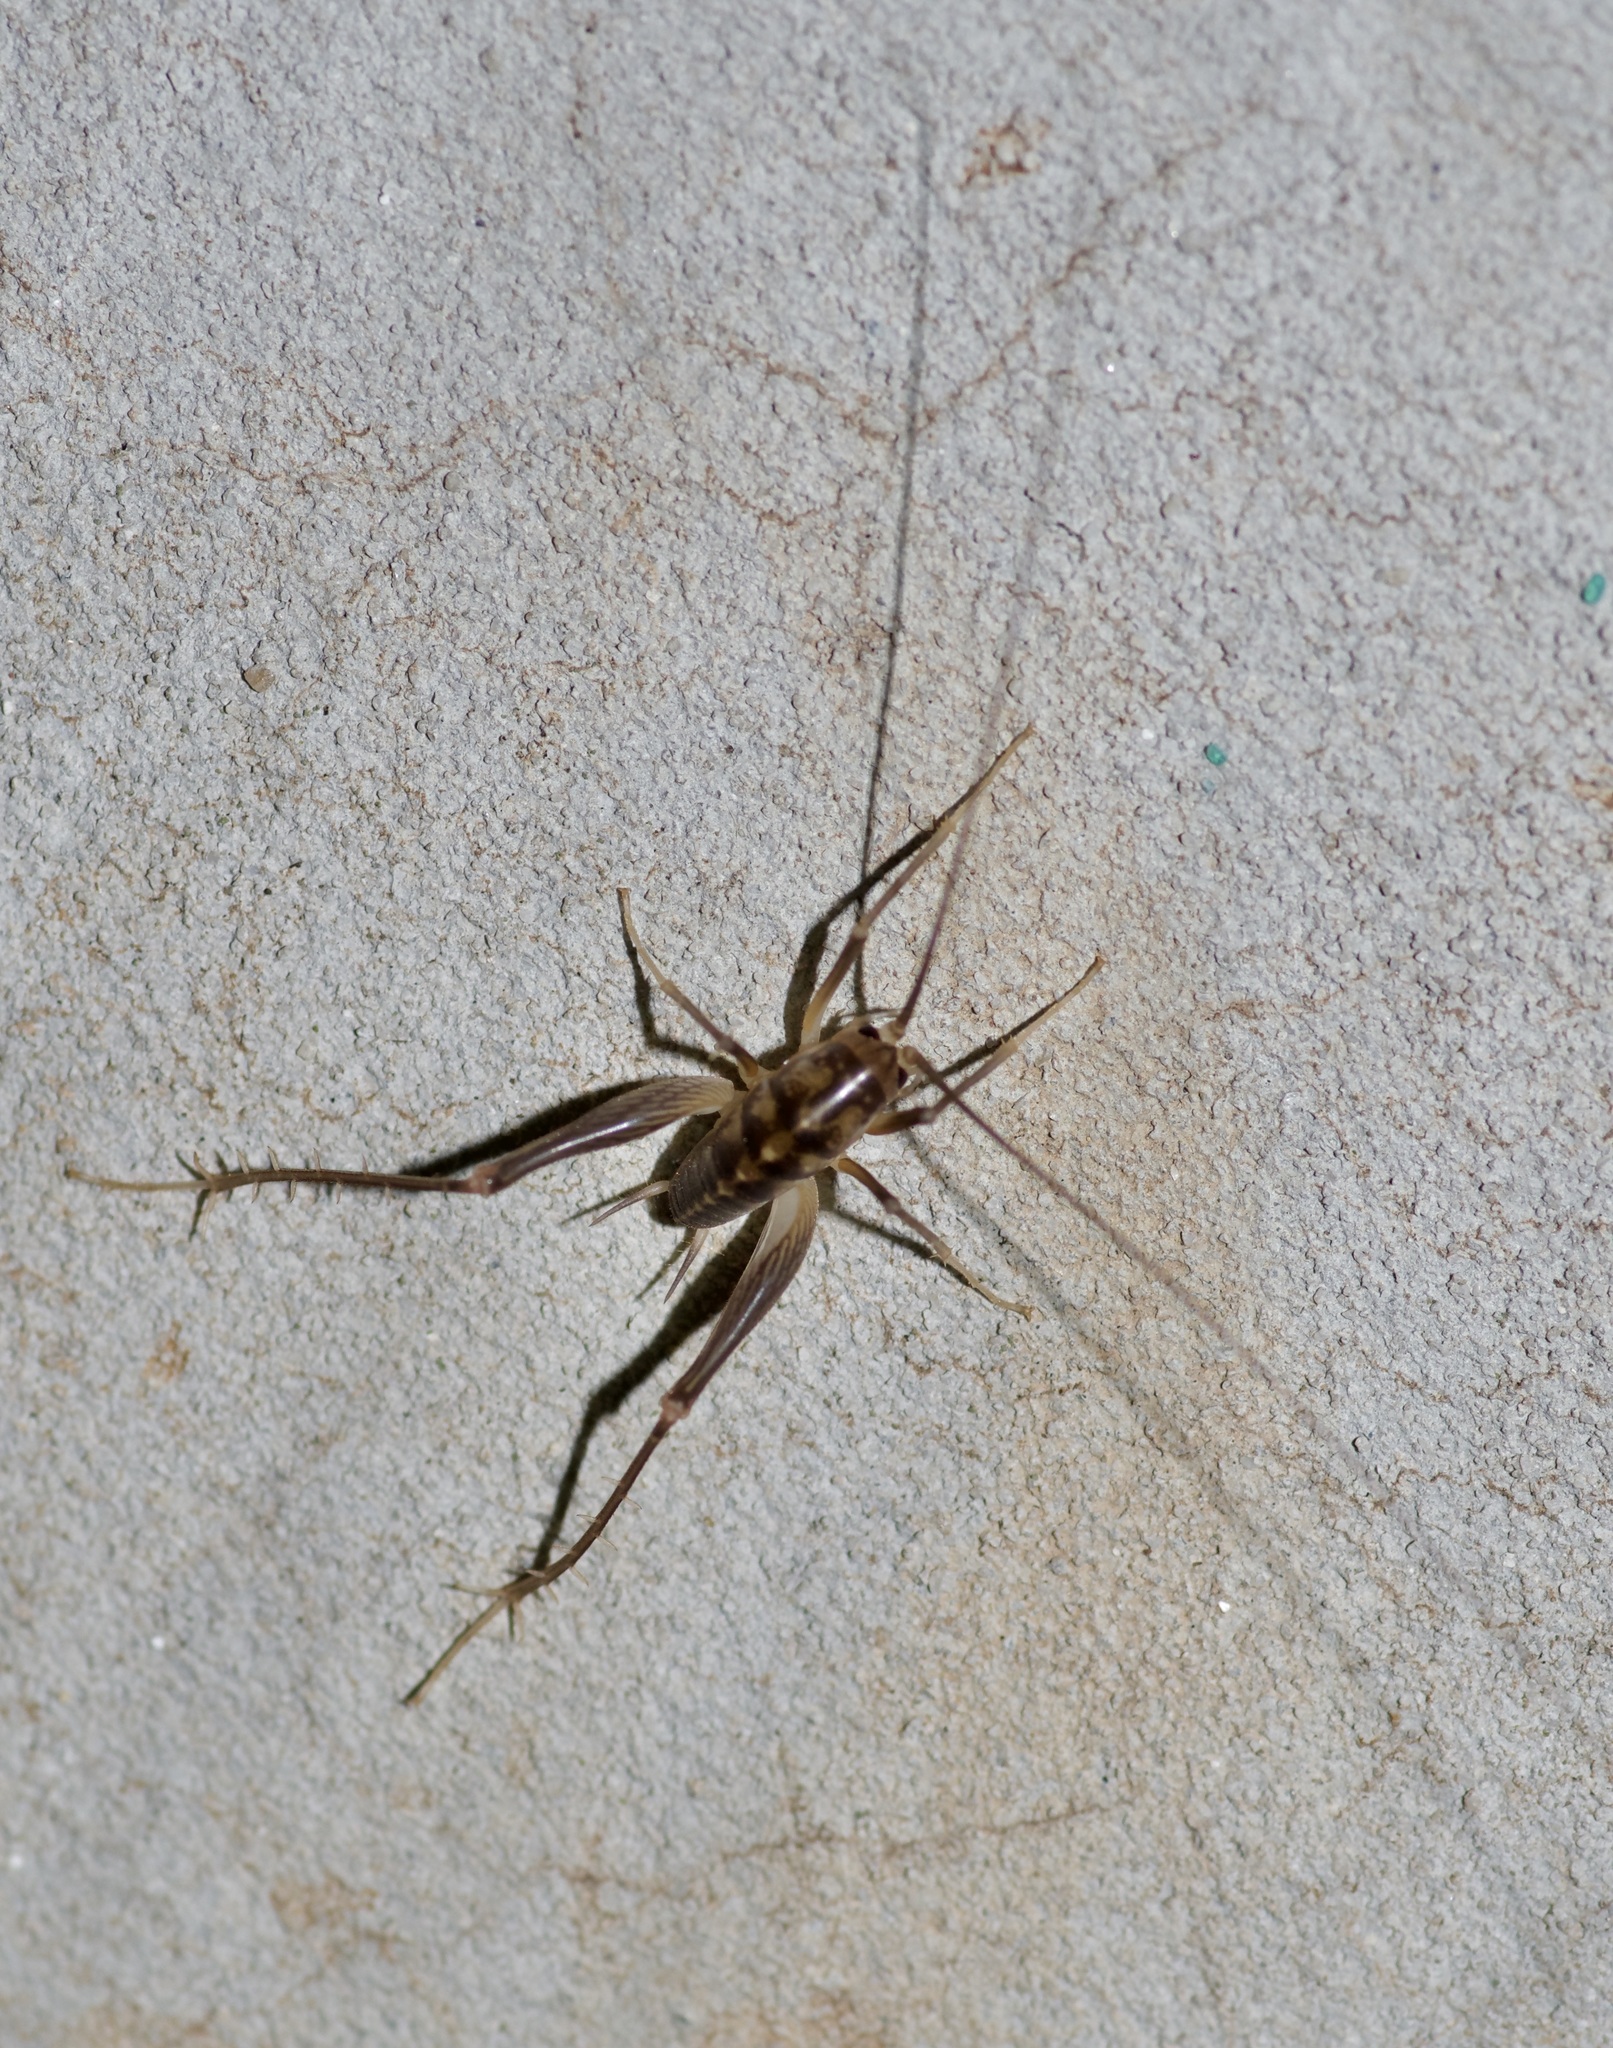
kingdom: Animalia
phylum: Arthropoda
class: Insecta
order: Orthoptera
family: Rhaphidophoridae
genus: Ceuthophilus
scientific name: Ceuthophilus secretus
